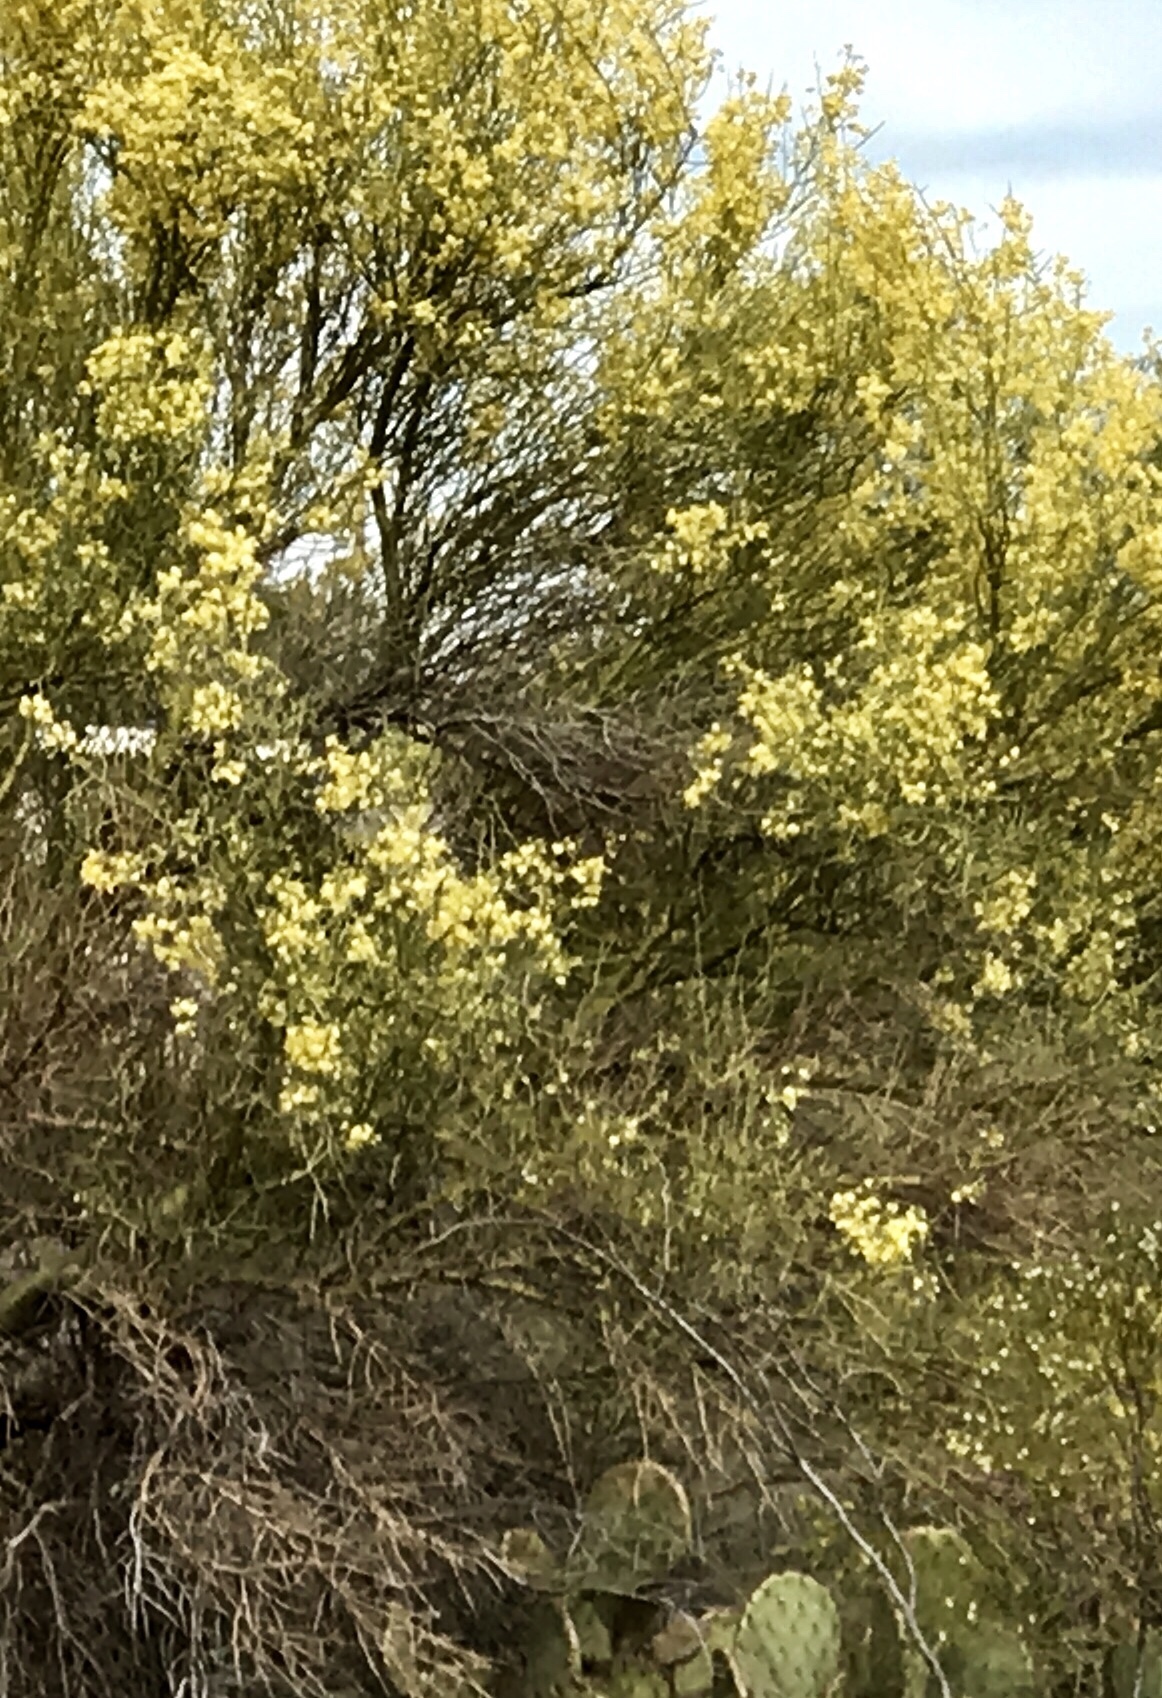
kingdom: Plantae
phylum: Tracheophyta
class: Magnoliopsida
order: Fabales
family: Fabaceae
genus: Parkinsonia
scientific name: Parkinsonia microphylla
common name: Yellow paloverde
